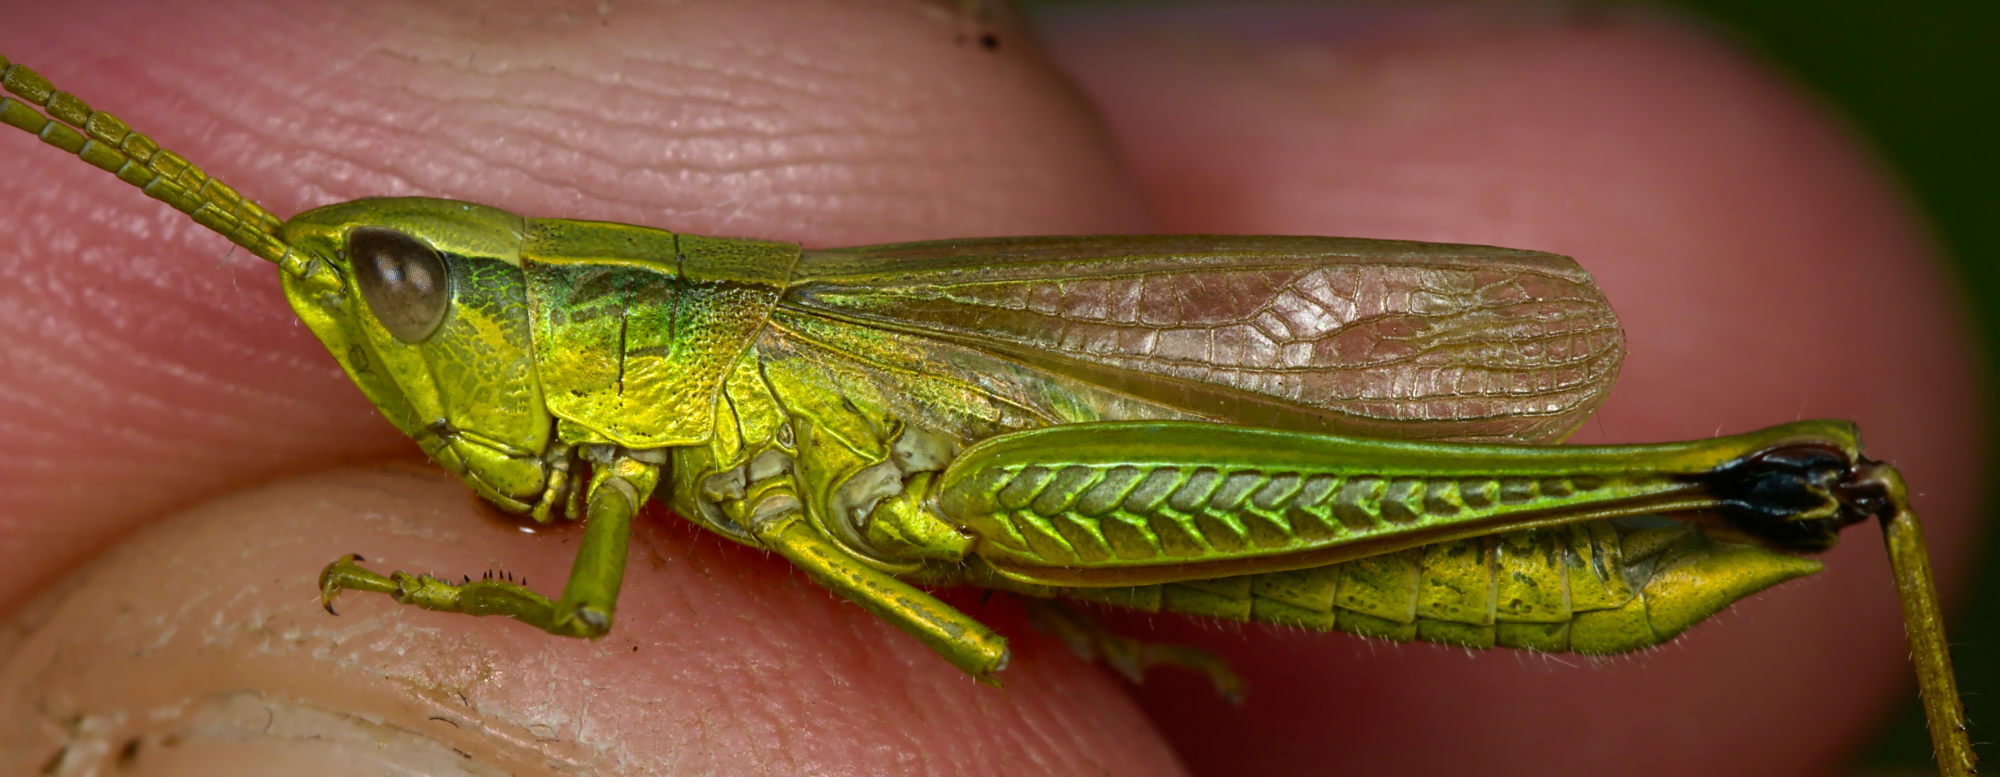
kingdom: Animalia
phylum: Arthropoda
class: Insecta
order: Orthoptera
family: Acrididae
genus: Chrysochraon
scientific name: Chrysochraon dispar
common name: Large gold grasshopper
